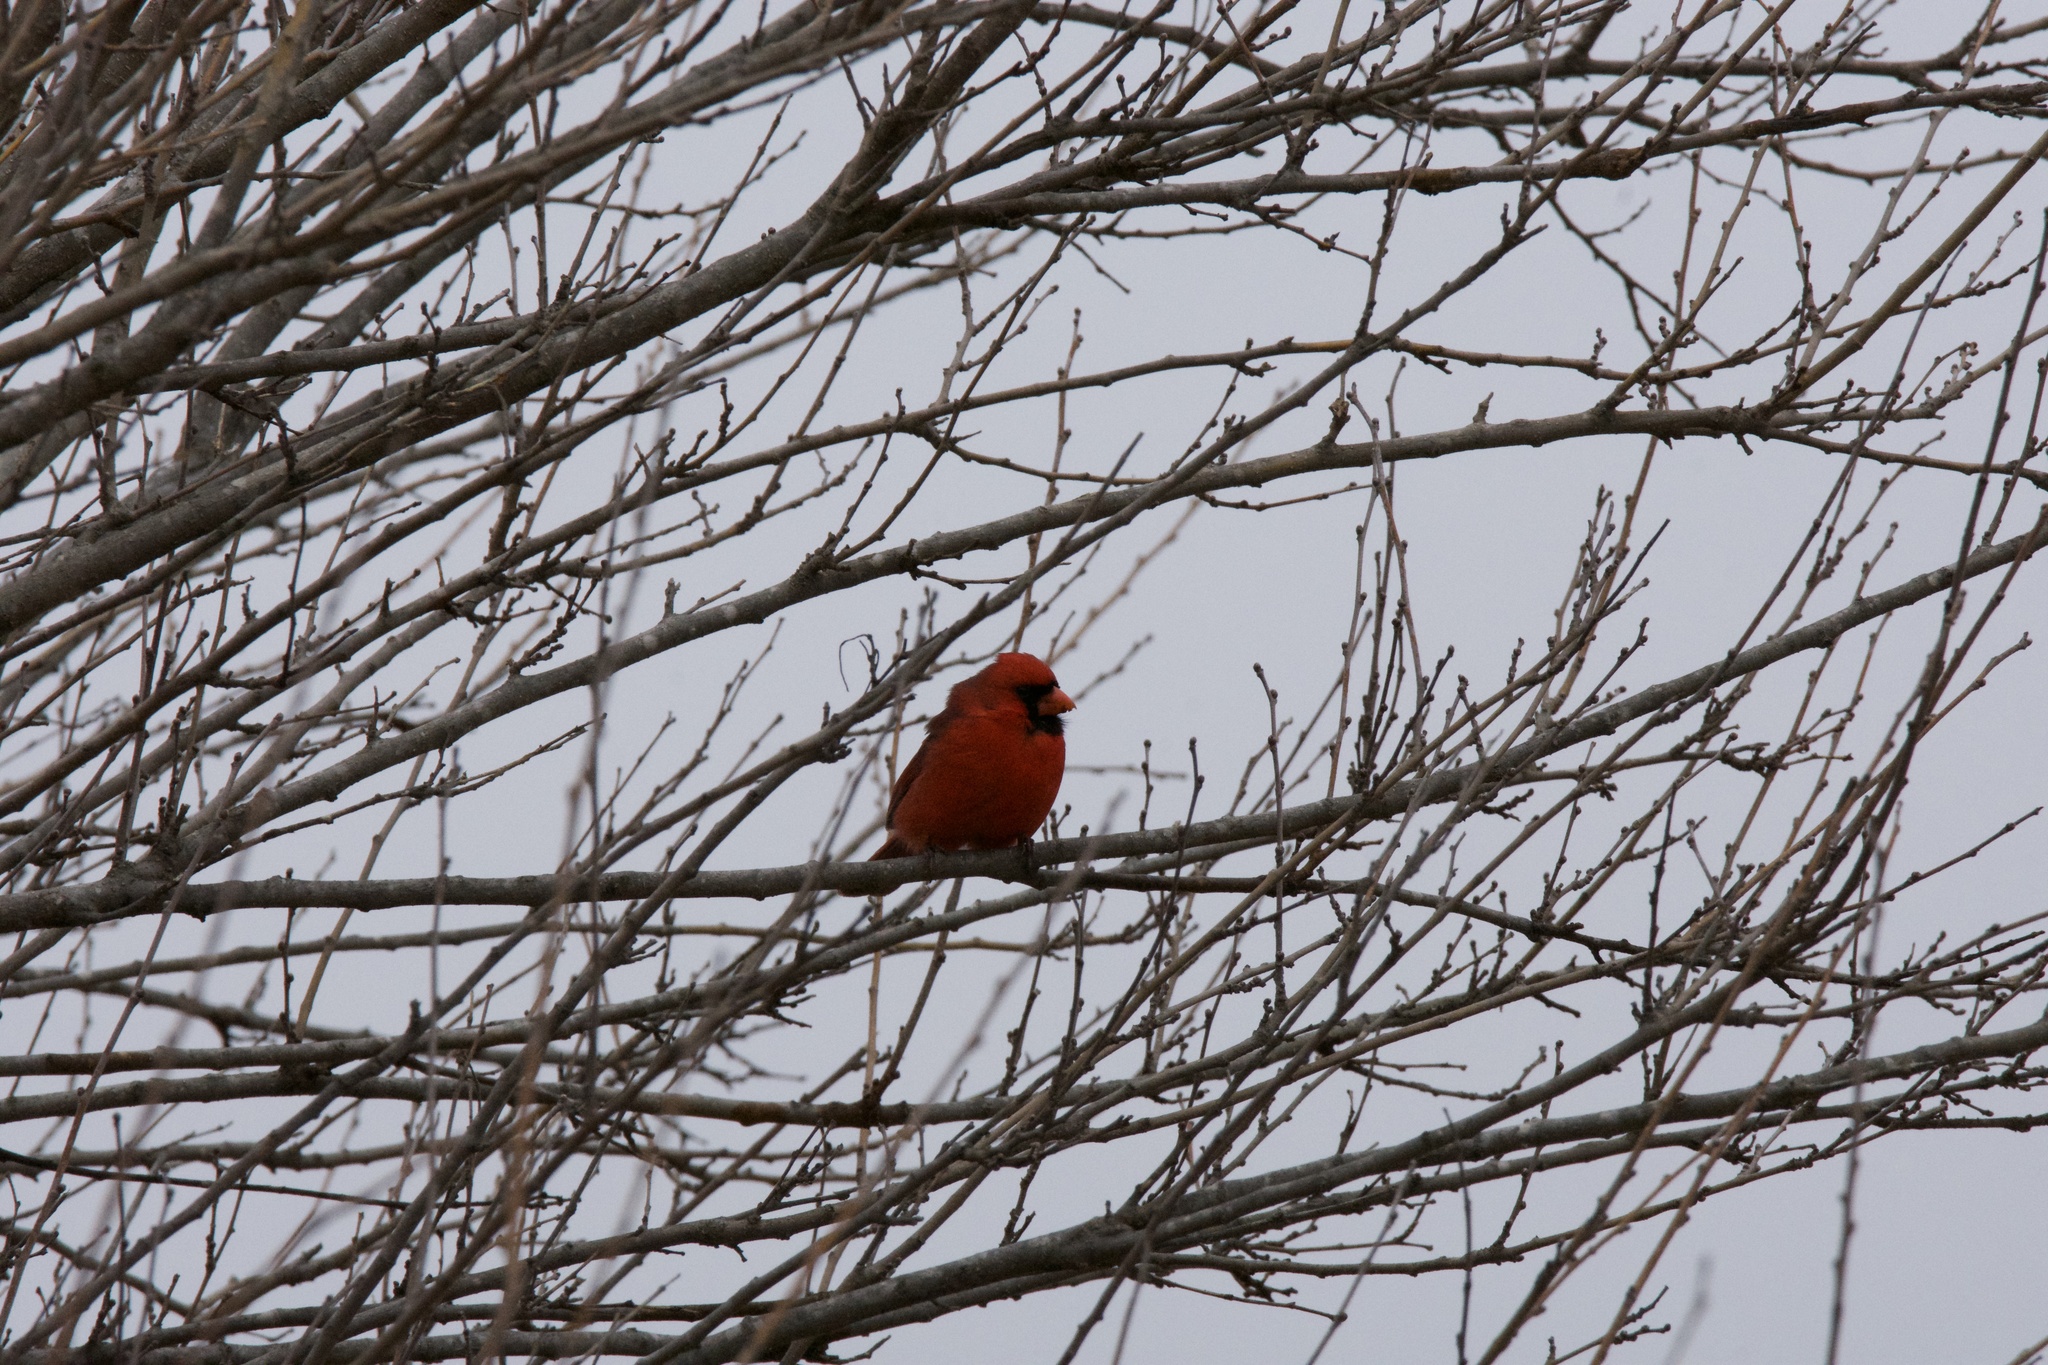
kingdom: Animalia
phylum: Chordata
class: Aves
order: Passeriformes
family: Cardinalidae
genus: Cardinalis
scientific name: Cardinalis cardinalis
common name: Northern cardinal
